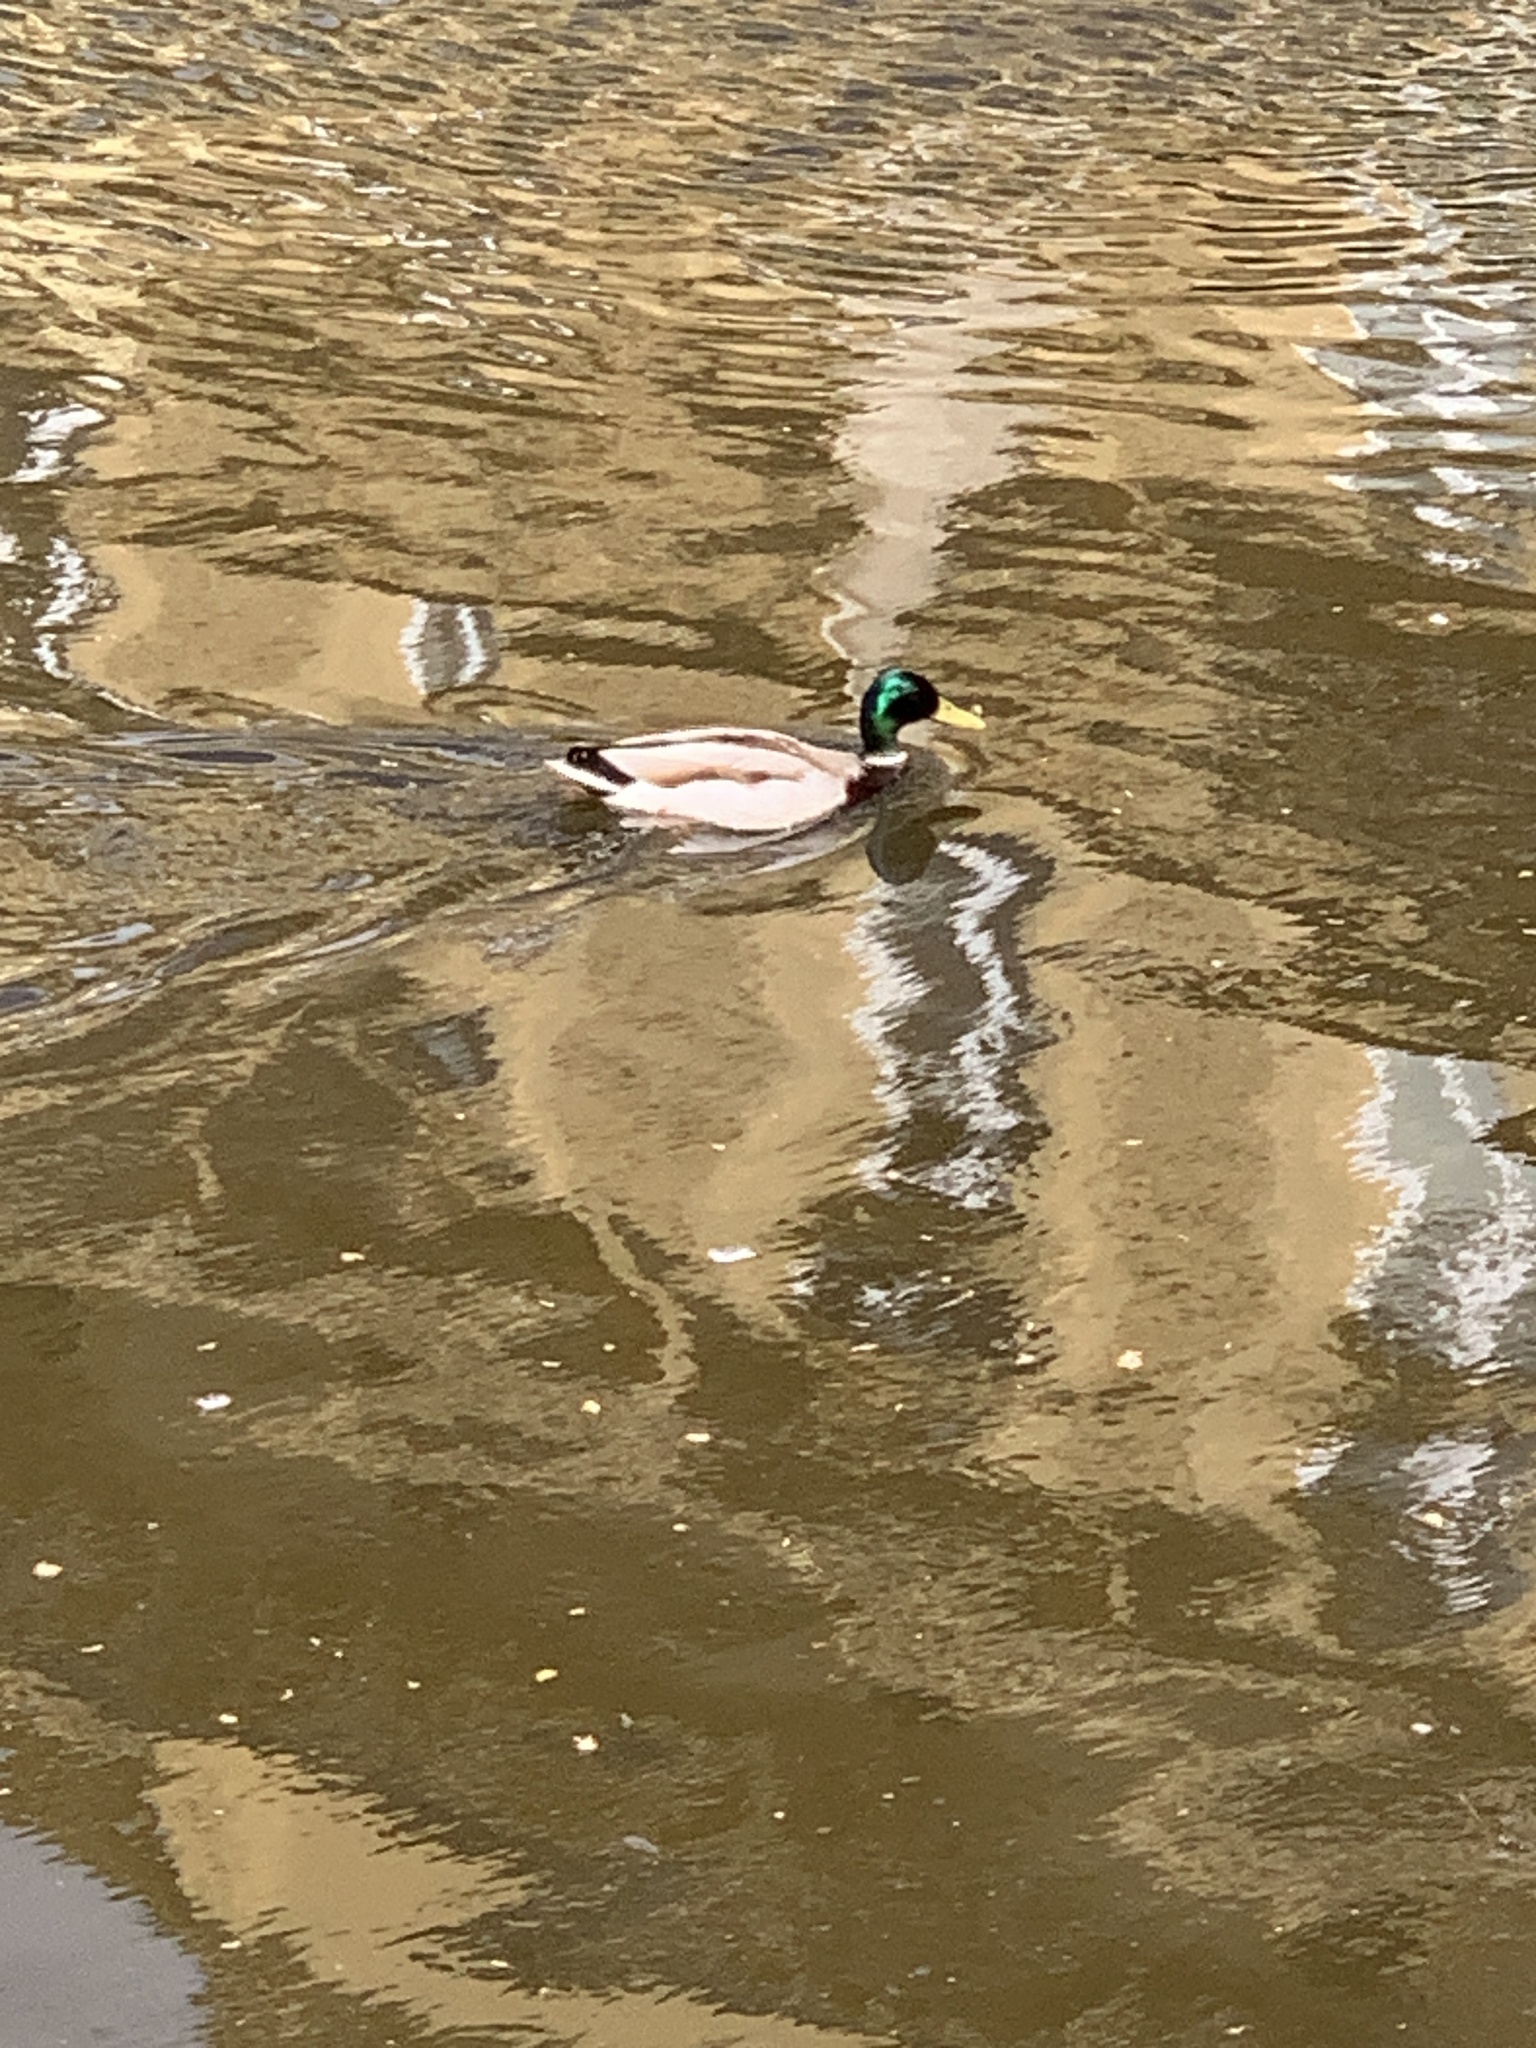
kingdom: Animalia
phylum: Chordata
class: Aves
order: Anseriformes
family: Anatidae
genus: Anas
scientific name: Anas platyrhynchos
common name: Mallard
